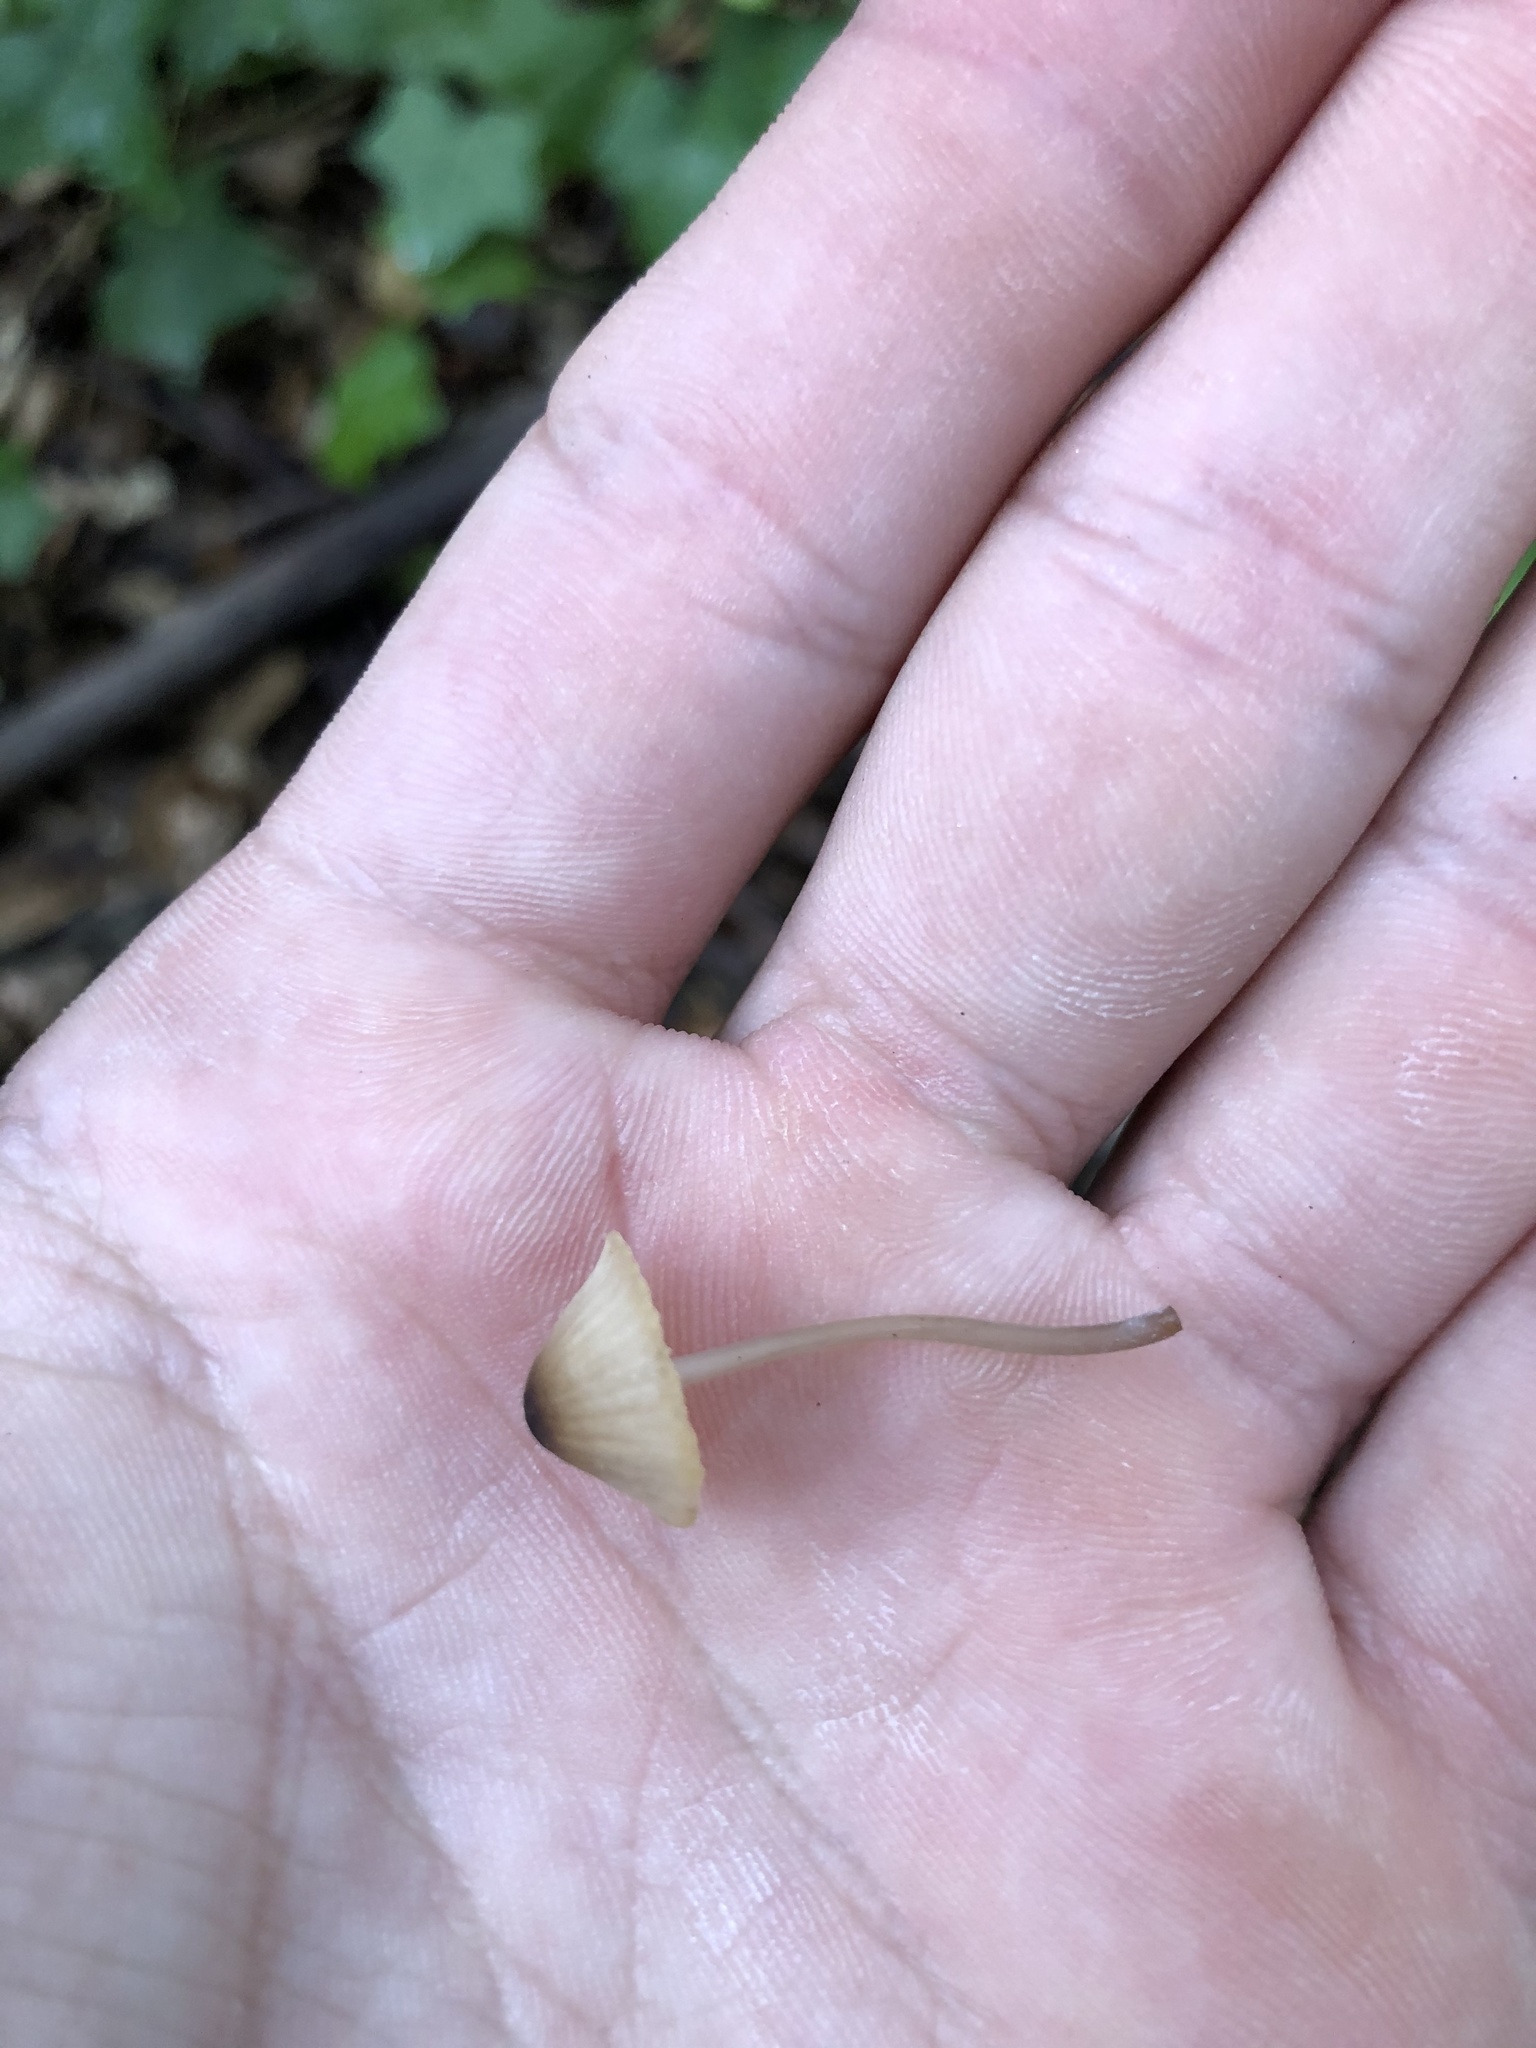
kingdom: Fungi
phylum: Basidiomycota
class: Agaricomycetes
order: Agaricales
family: Mycenaceae
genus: Mycena
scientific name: Mycena galopus
